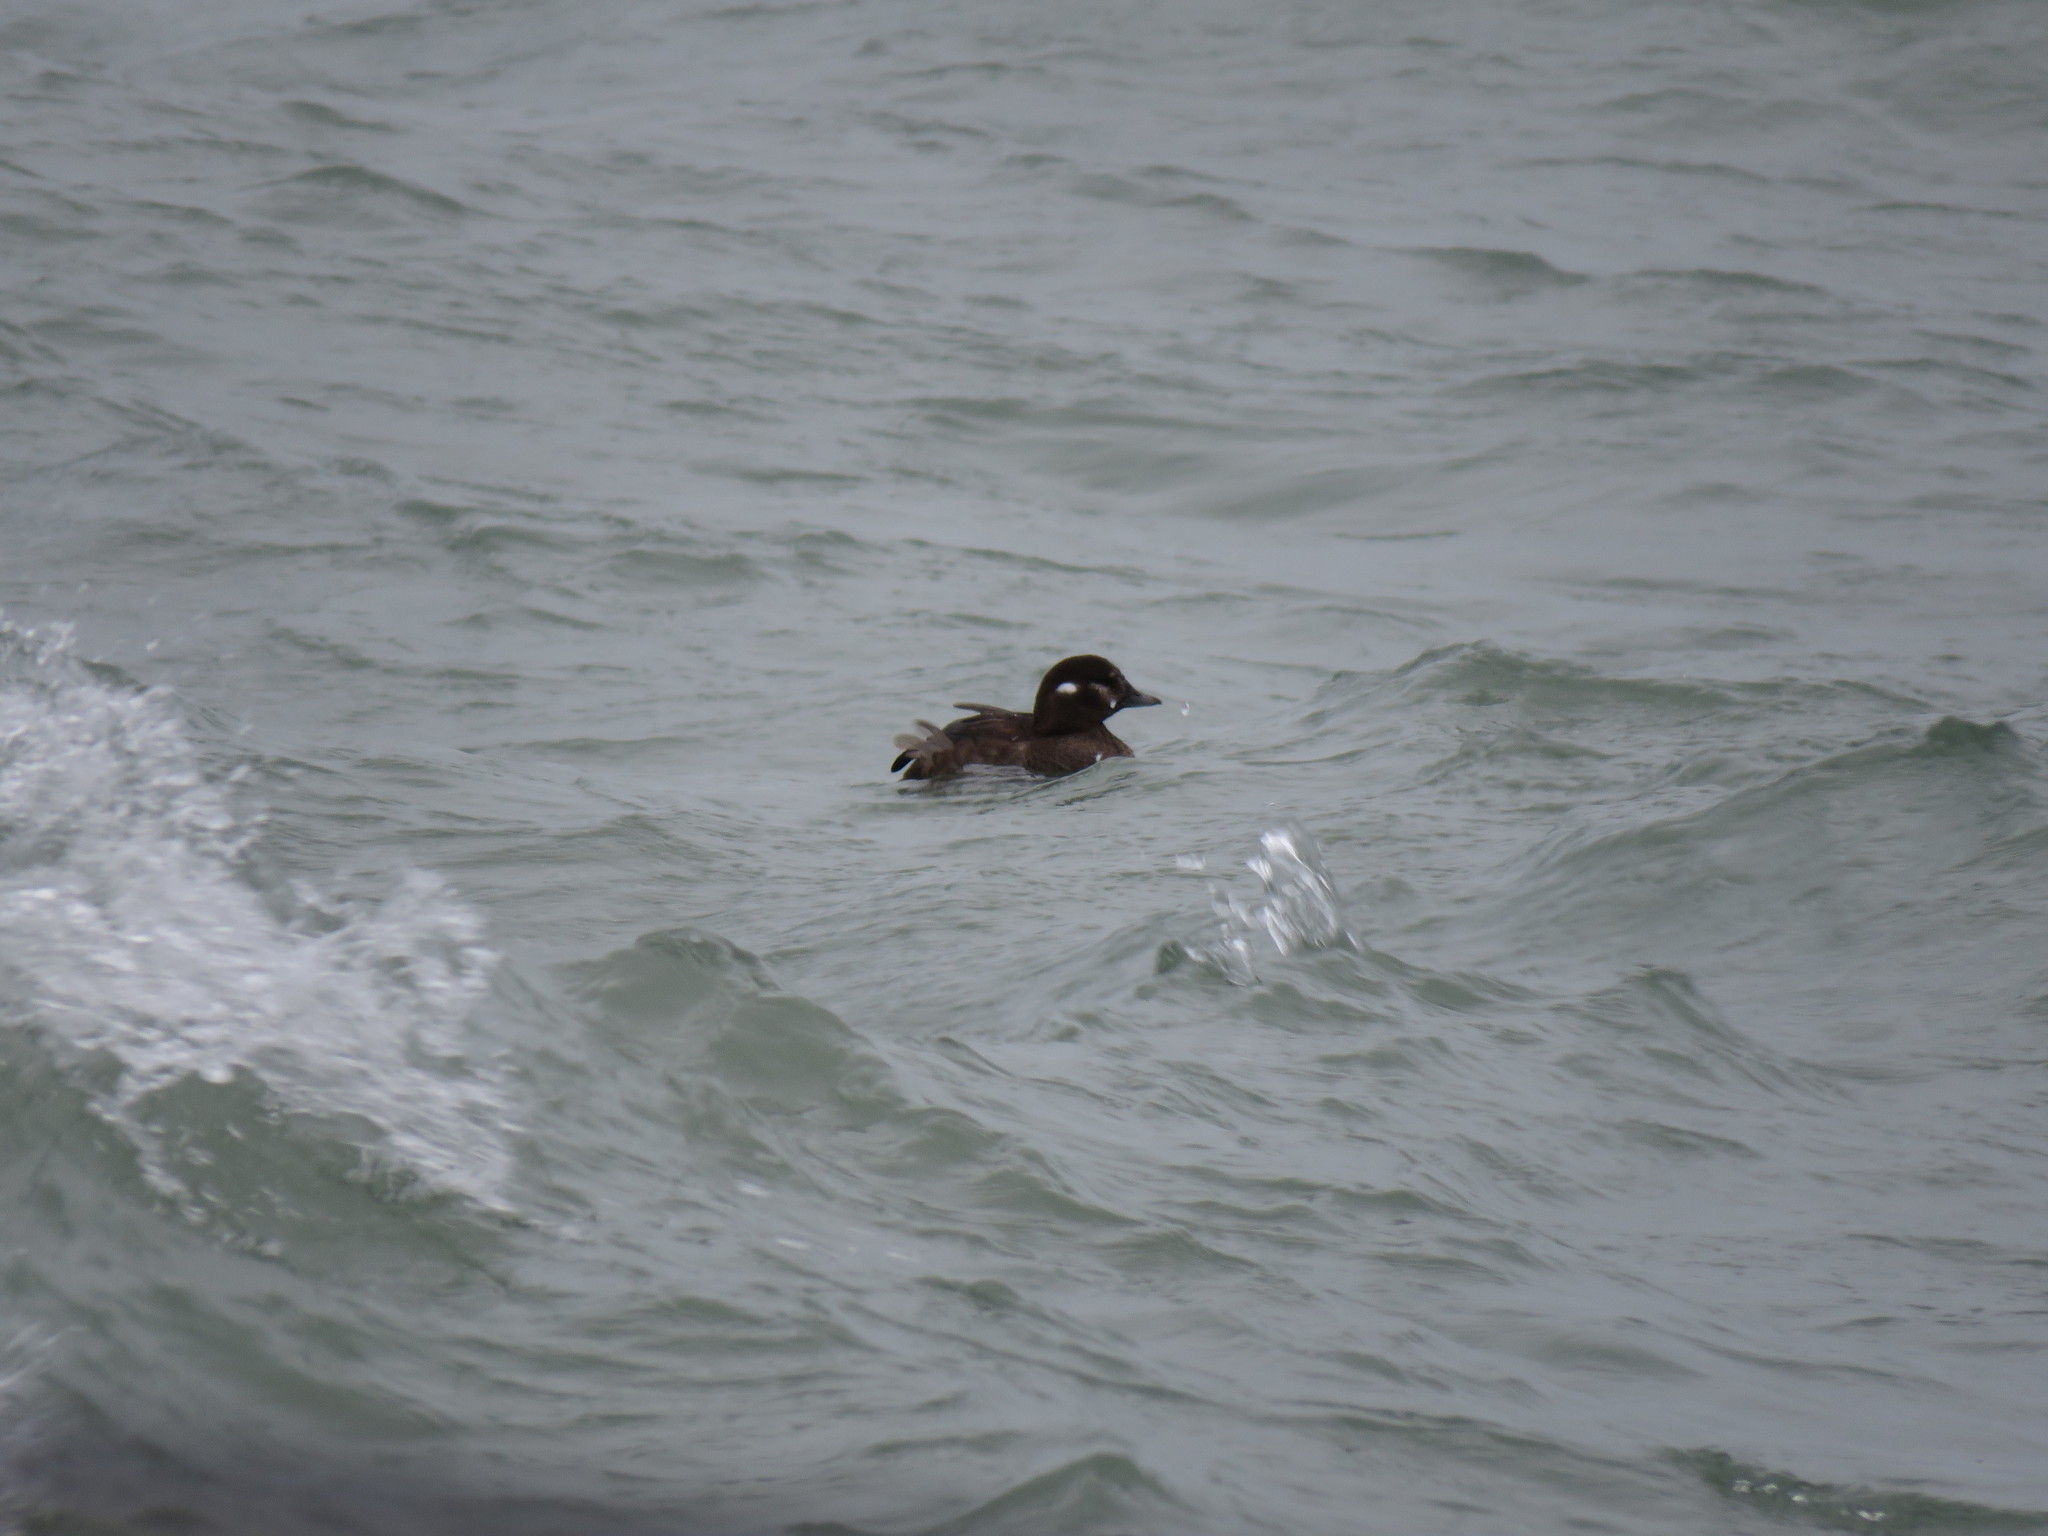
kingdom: Animalia
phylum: Chordata
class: Aves
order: Anseriformes
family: Anatidae
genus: Histrionicus
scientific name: Histrionicus histrionicus
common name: Harlequin duck
